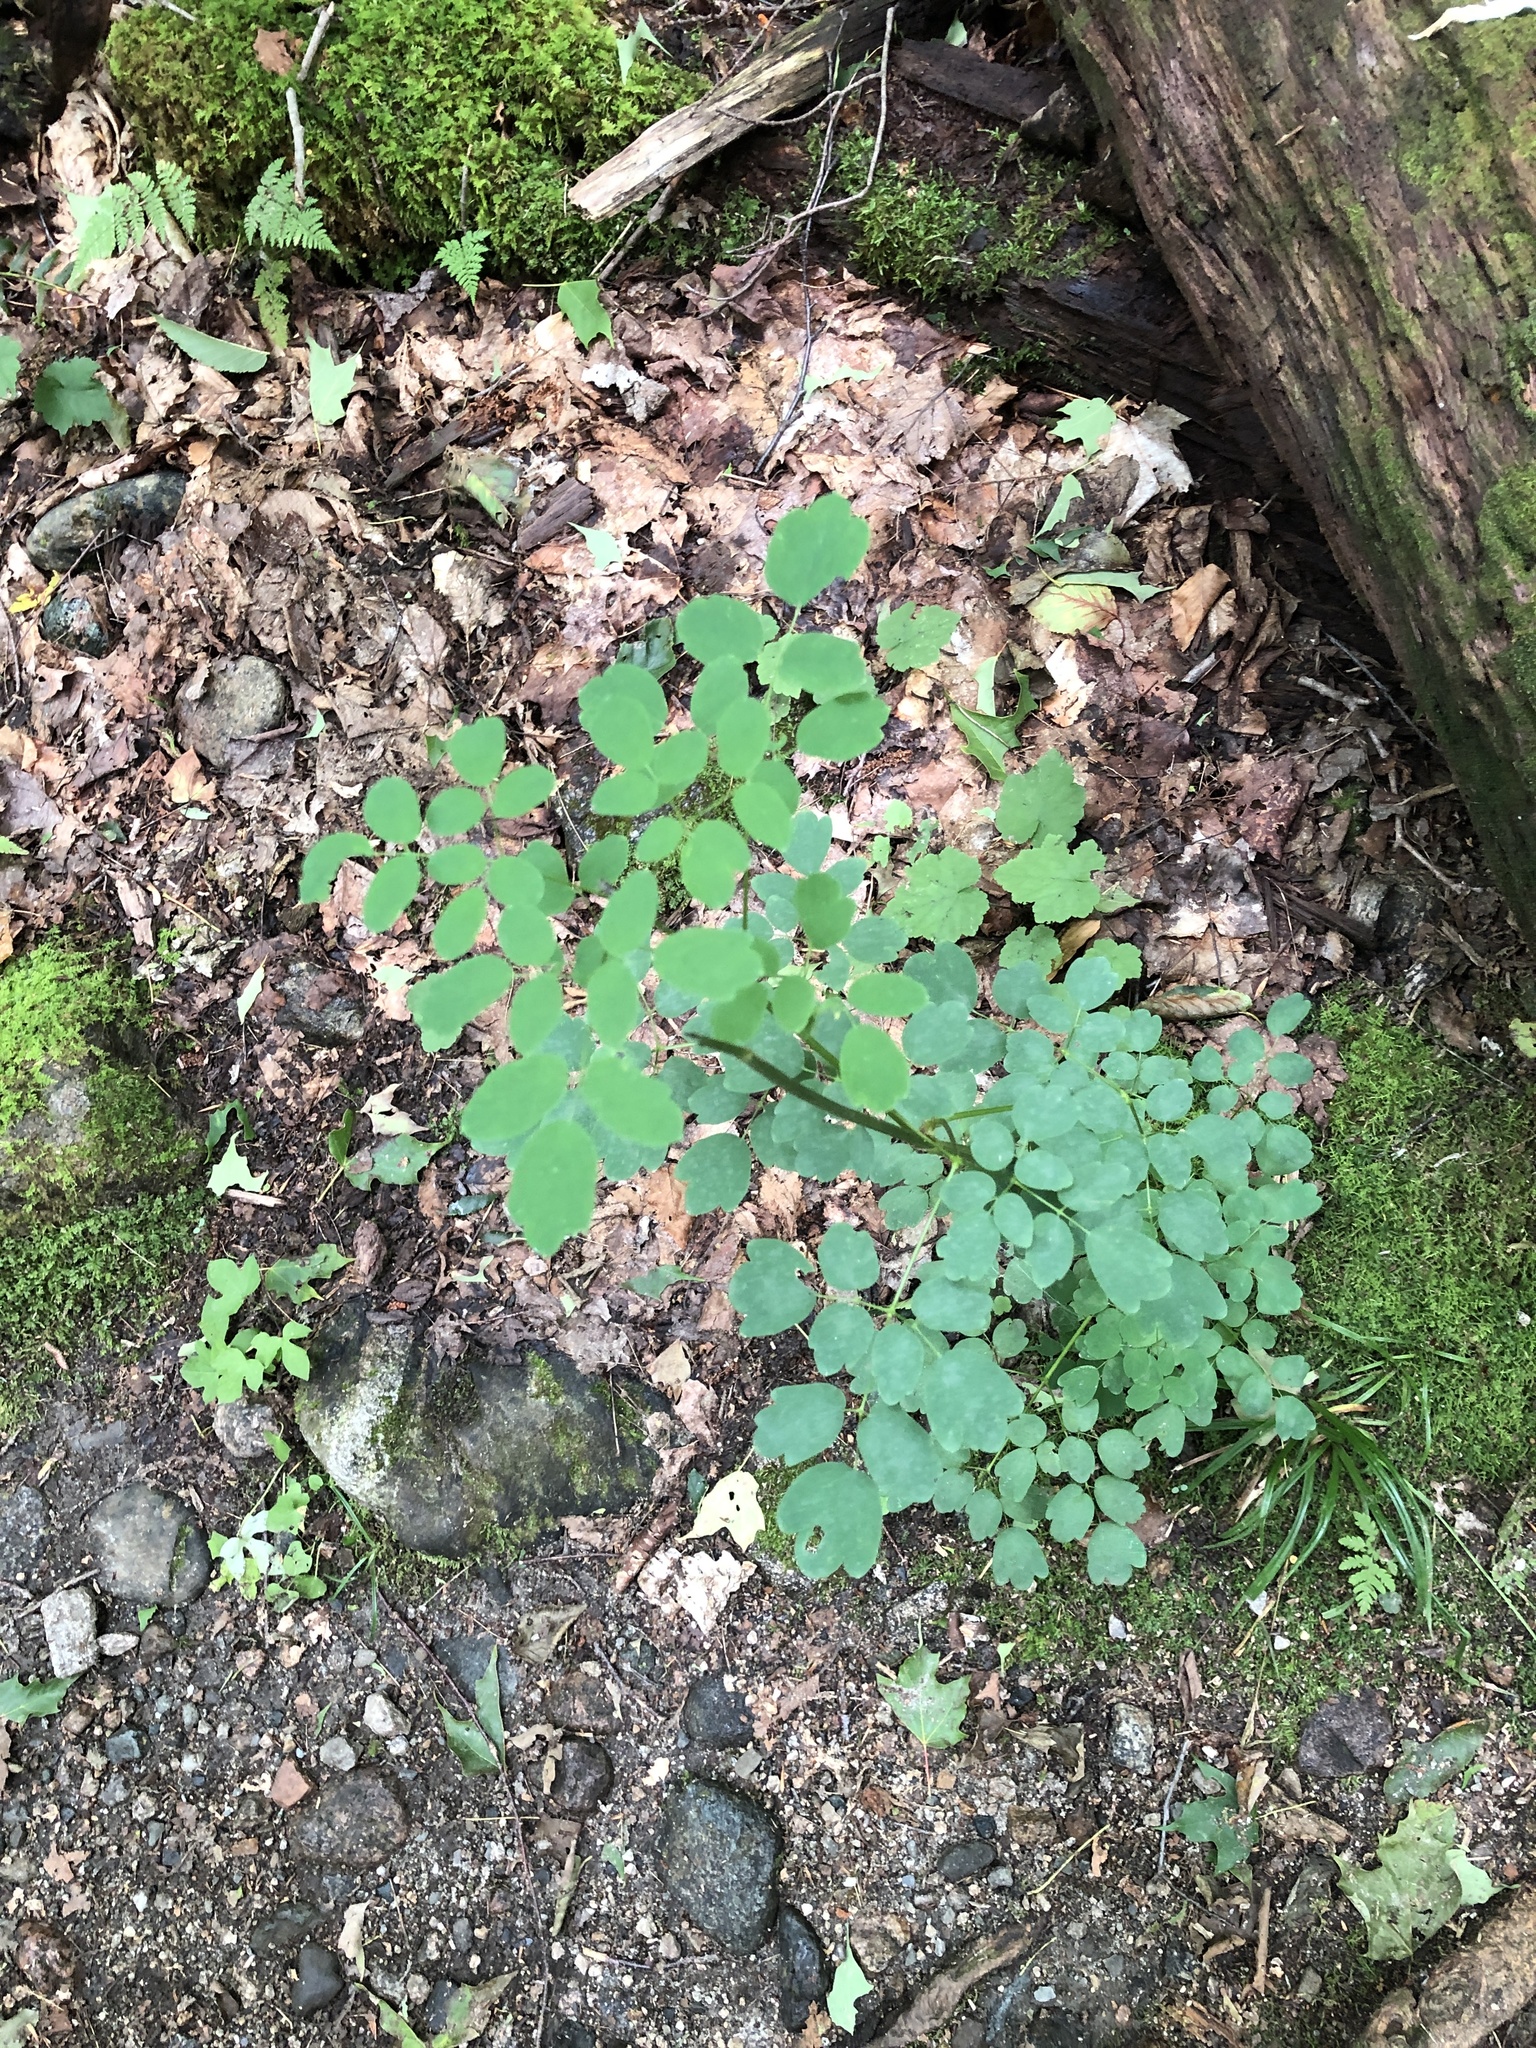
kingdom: Plantae
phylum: Tracheophyta
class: Magnoliopsida
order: Ranunculales
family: Ranunculaceae
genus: Thalictrum
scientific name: Thalictrum pubescens
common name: King-of-the-meadow
